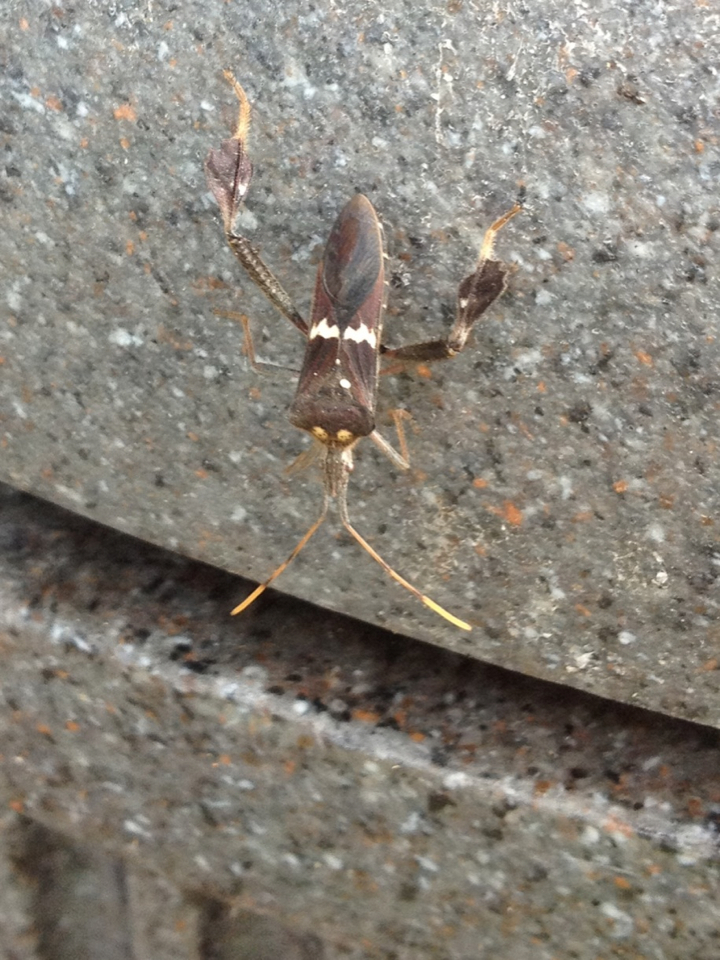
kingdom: Animalia
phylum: Arthropoda
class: Insecta
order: Hemiptera
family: Coreidae
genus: Leptoglossus
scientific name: Leptoglossus zonatus
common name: Large-legged bug
